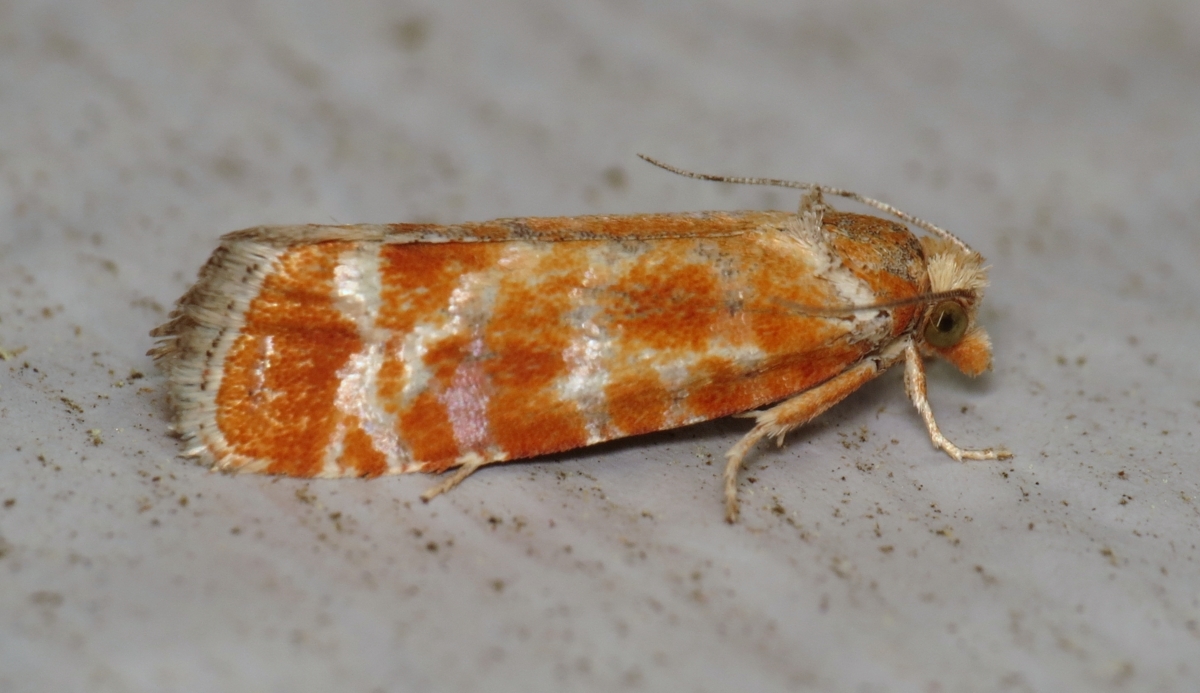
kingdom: Animalia
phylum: Arthropoda
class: Insecta
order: Lepidoptera
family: Tortricidae
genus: Rhyacionia
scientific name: Rhyacionia buoliana
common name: European pine shoot moth
